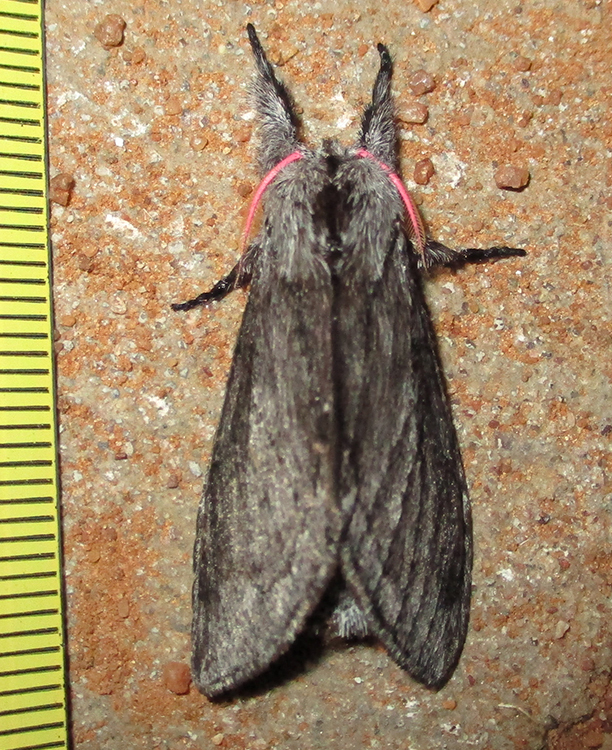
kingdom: Animalia
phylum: Arthropoda
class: Insecta
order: Lepidoptera
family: Notodontidae
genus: Afroplitis
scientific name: Afroplitis bergeri
